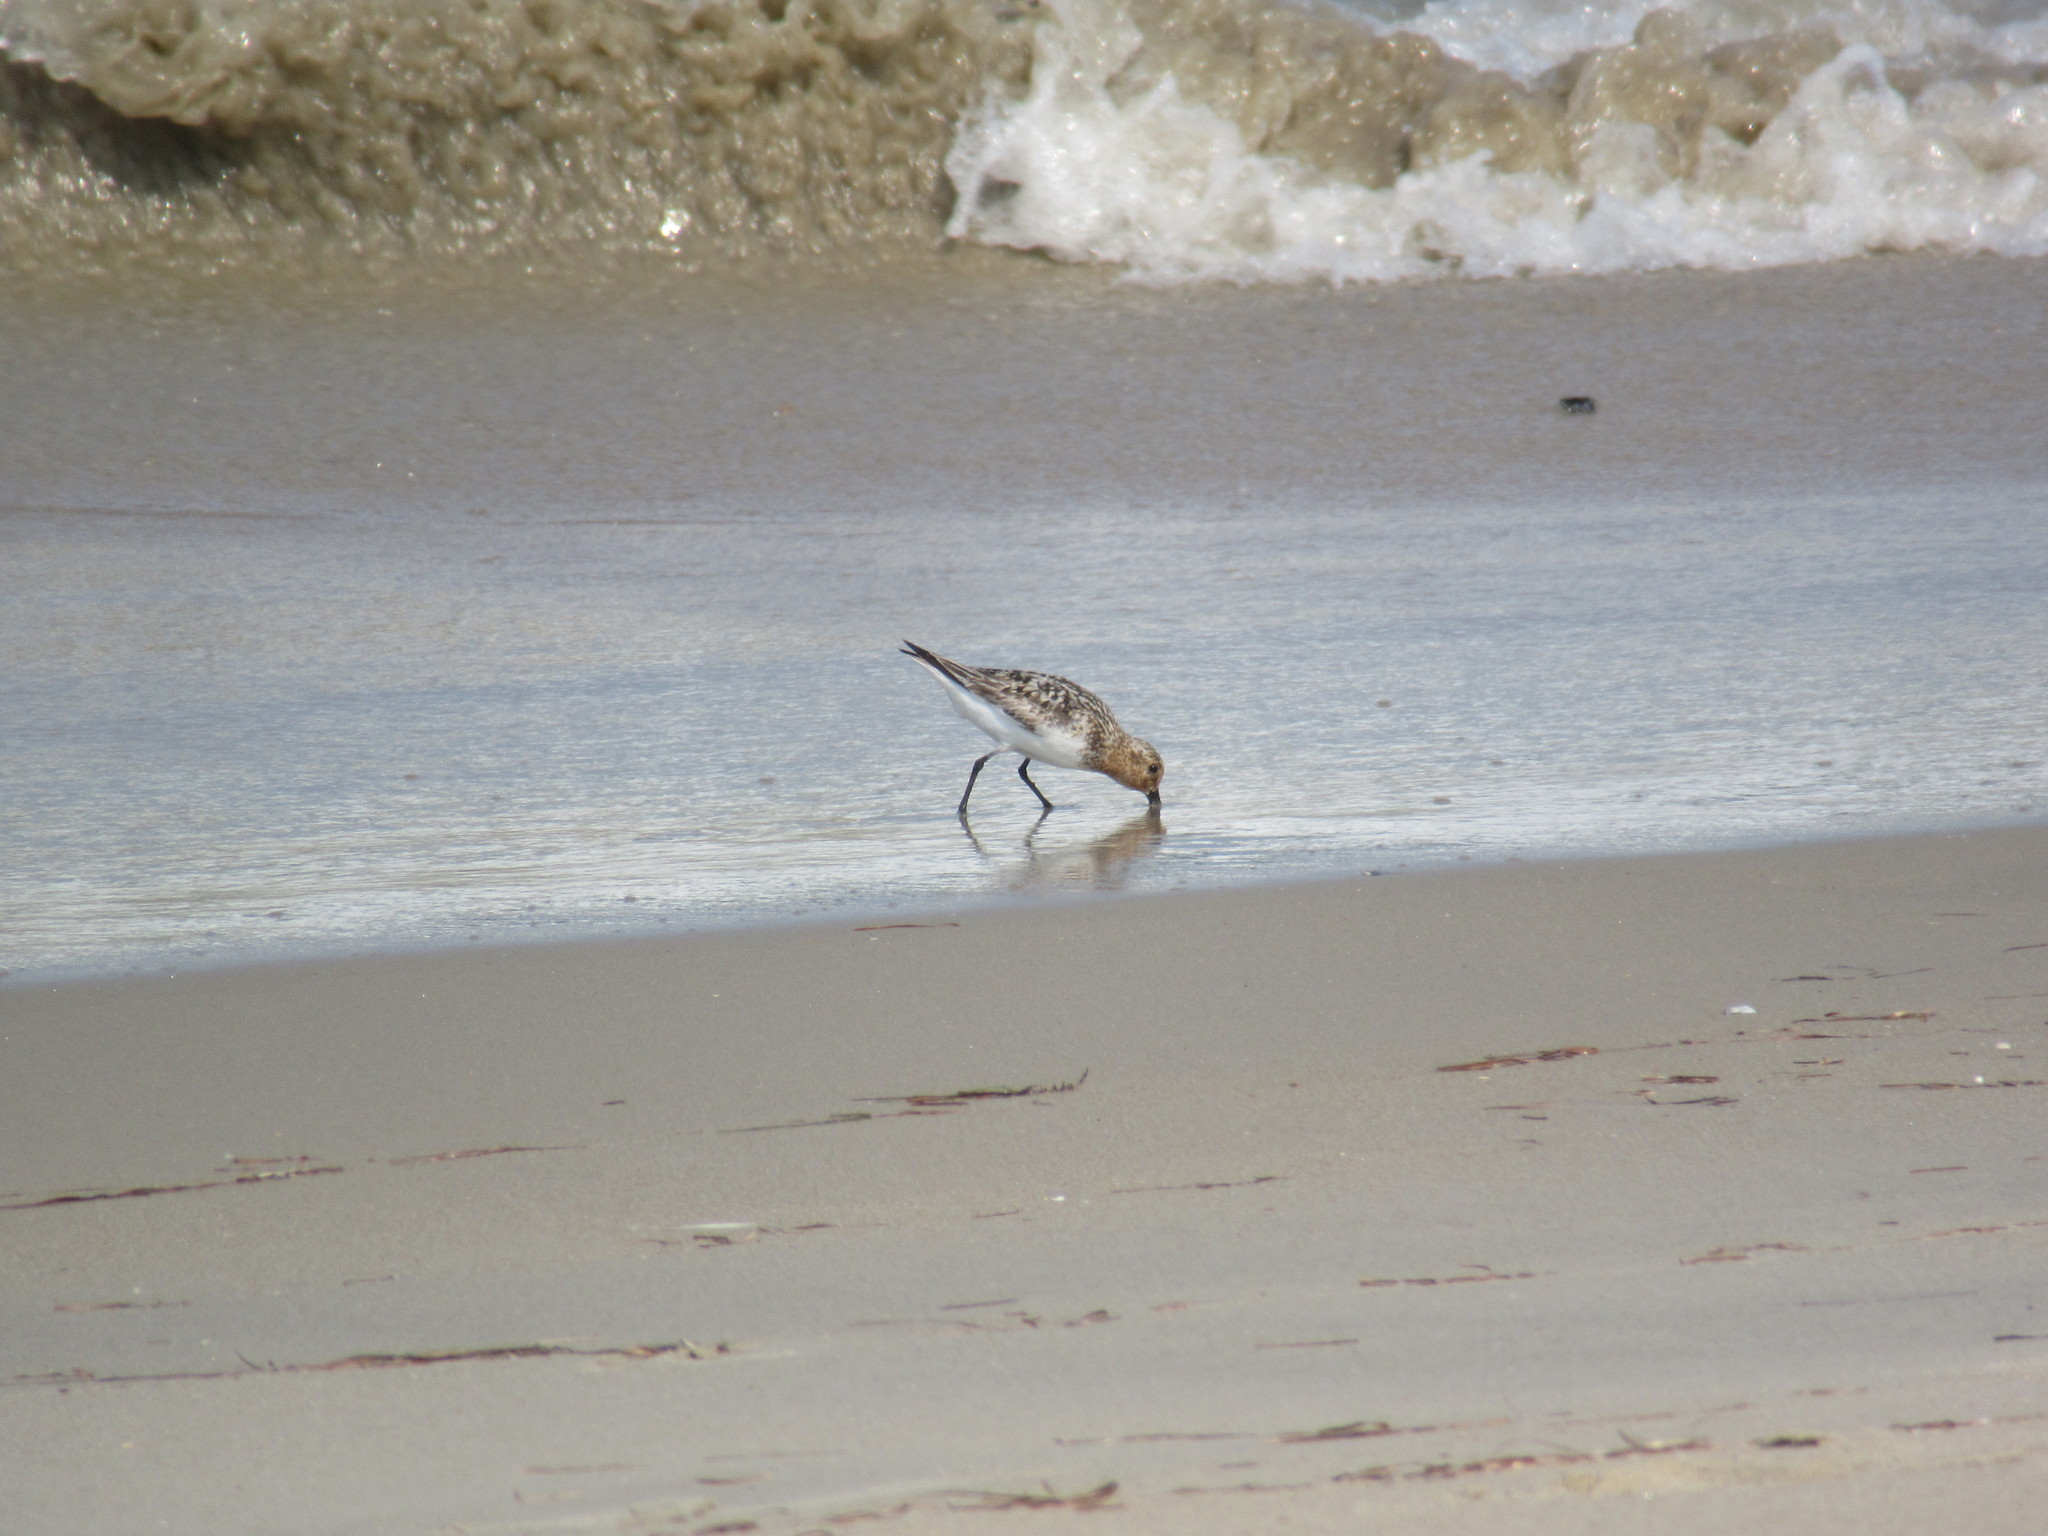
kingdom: Animalia
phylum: Chordata
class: Aves
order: Charadriiformes
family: Scolopacidae
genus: Calidris
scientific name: Calidris alba
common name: Sanderling
